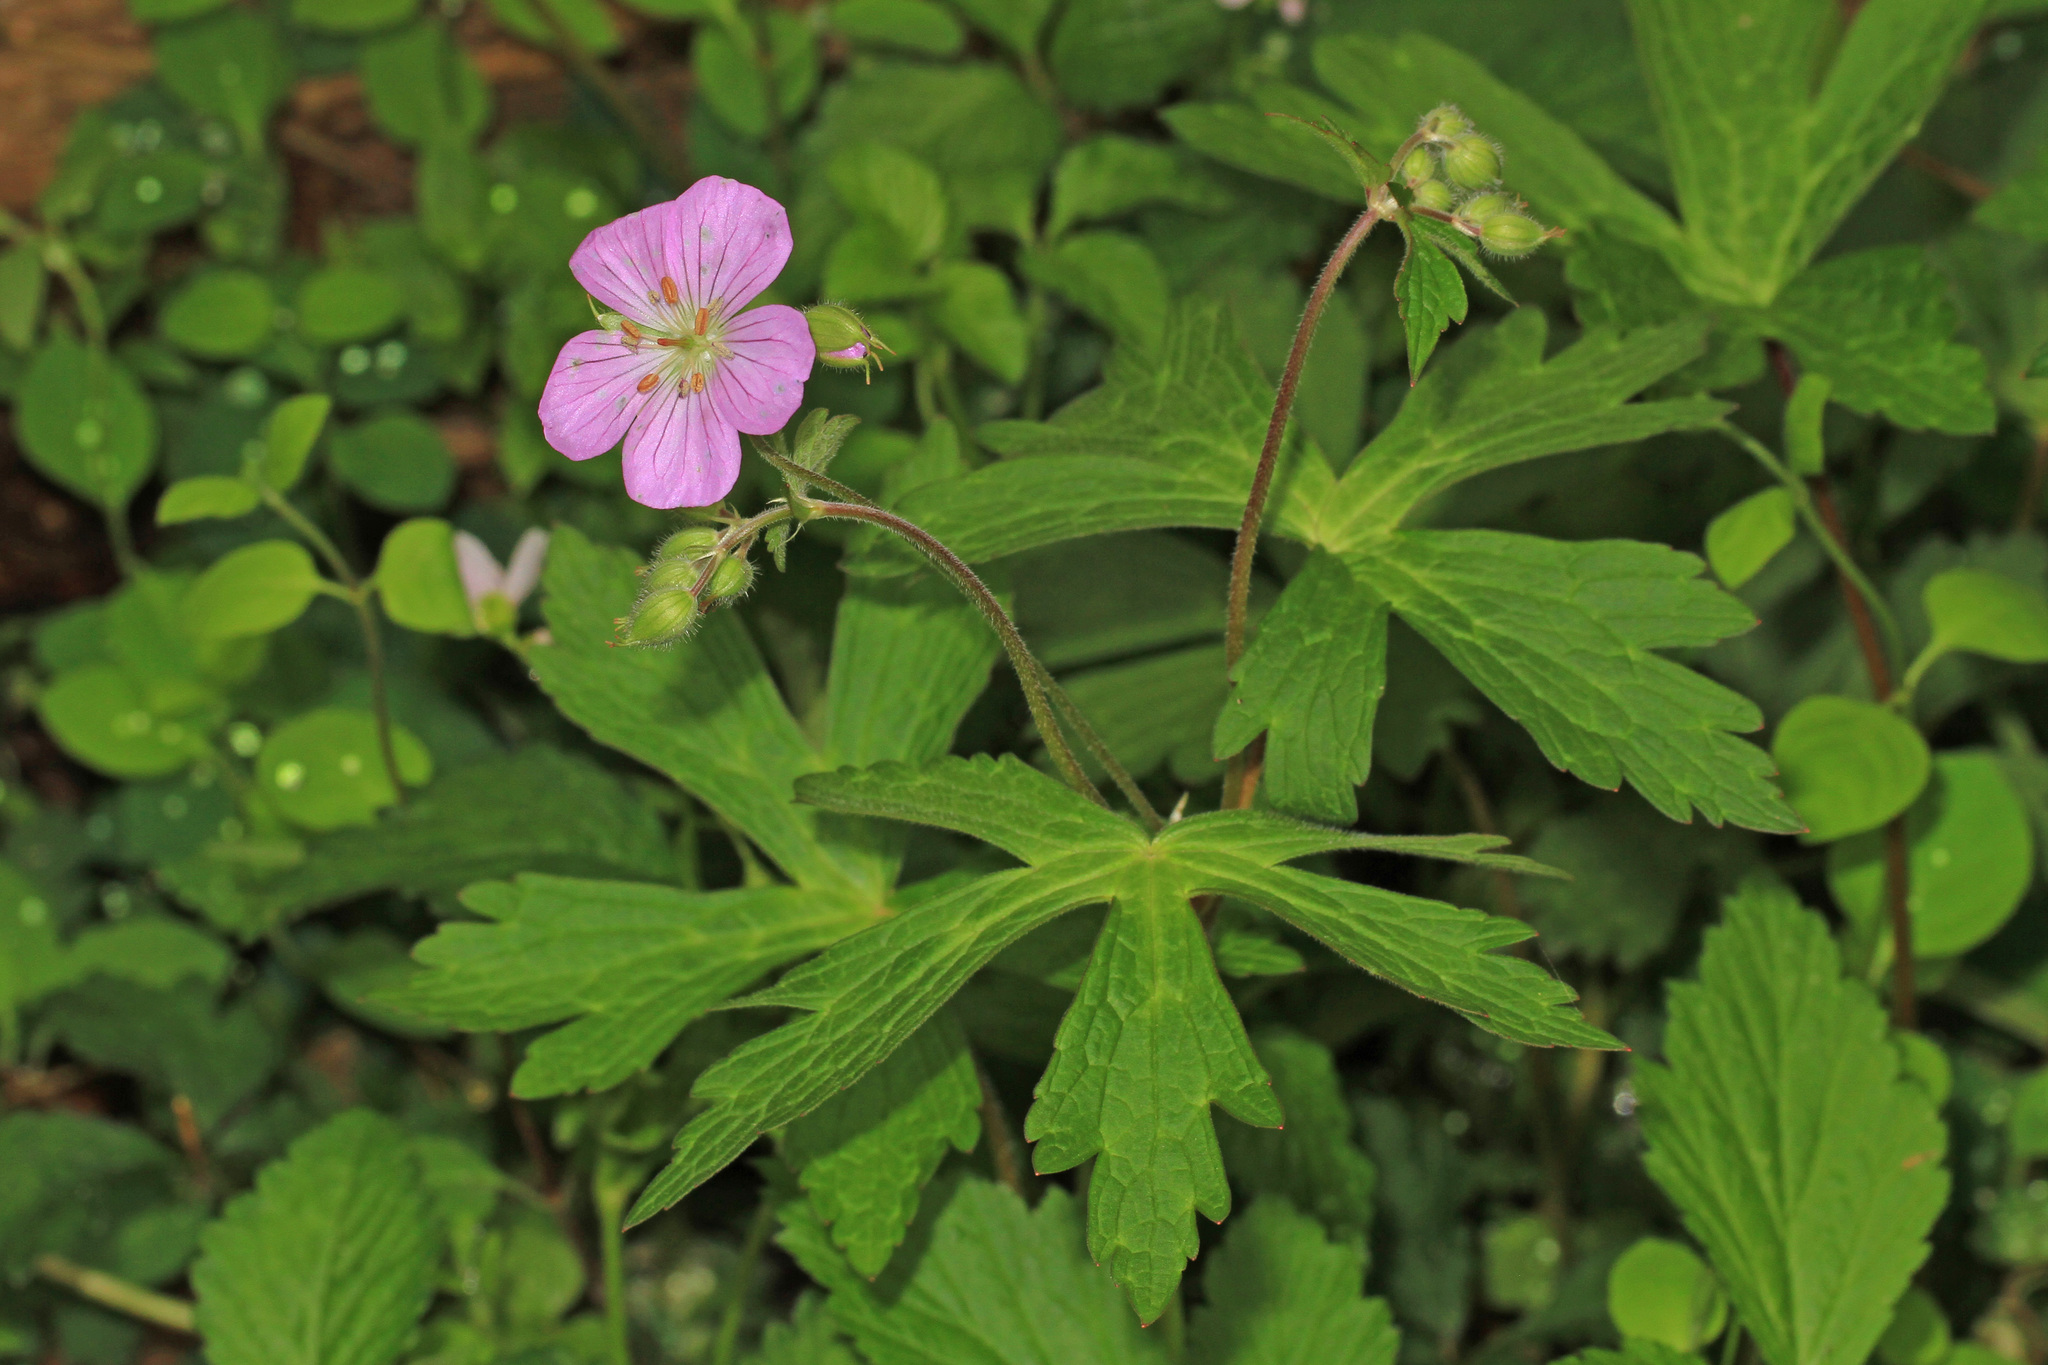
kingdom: Plantae
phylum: Tracheophyta
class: Magnoliopsida
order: Geraniales
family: Geraniaceae
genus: Geranium
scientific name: Geranium maculatum
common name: Spotted geranium
